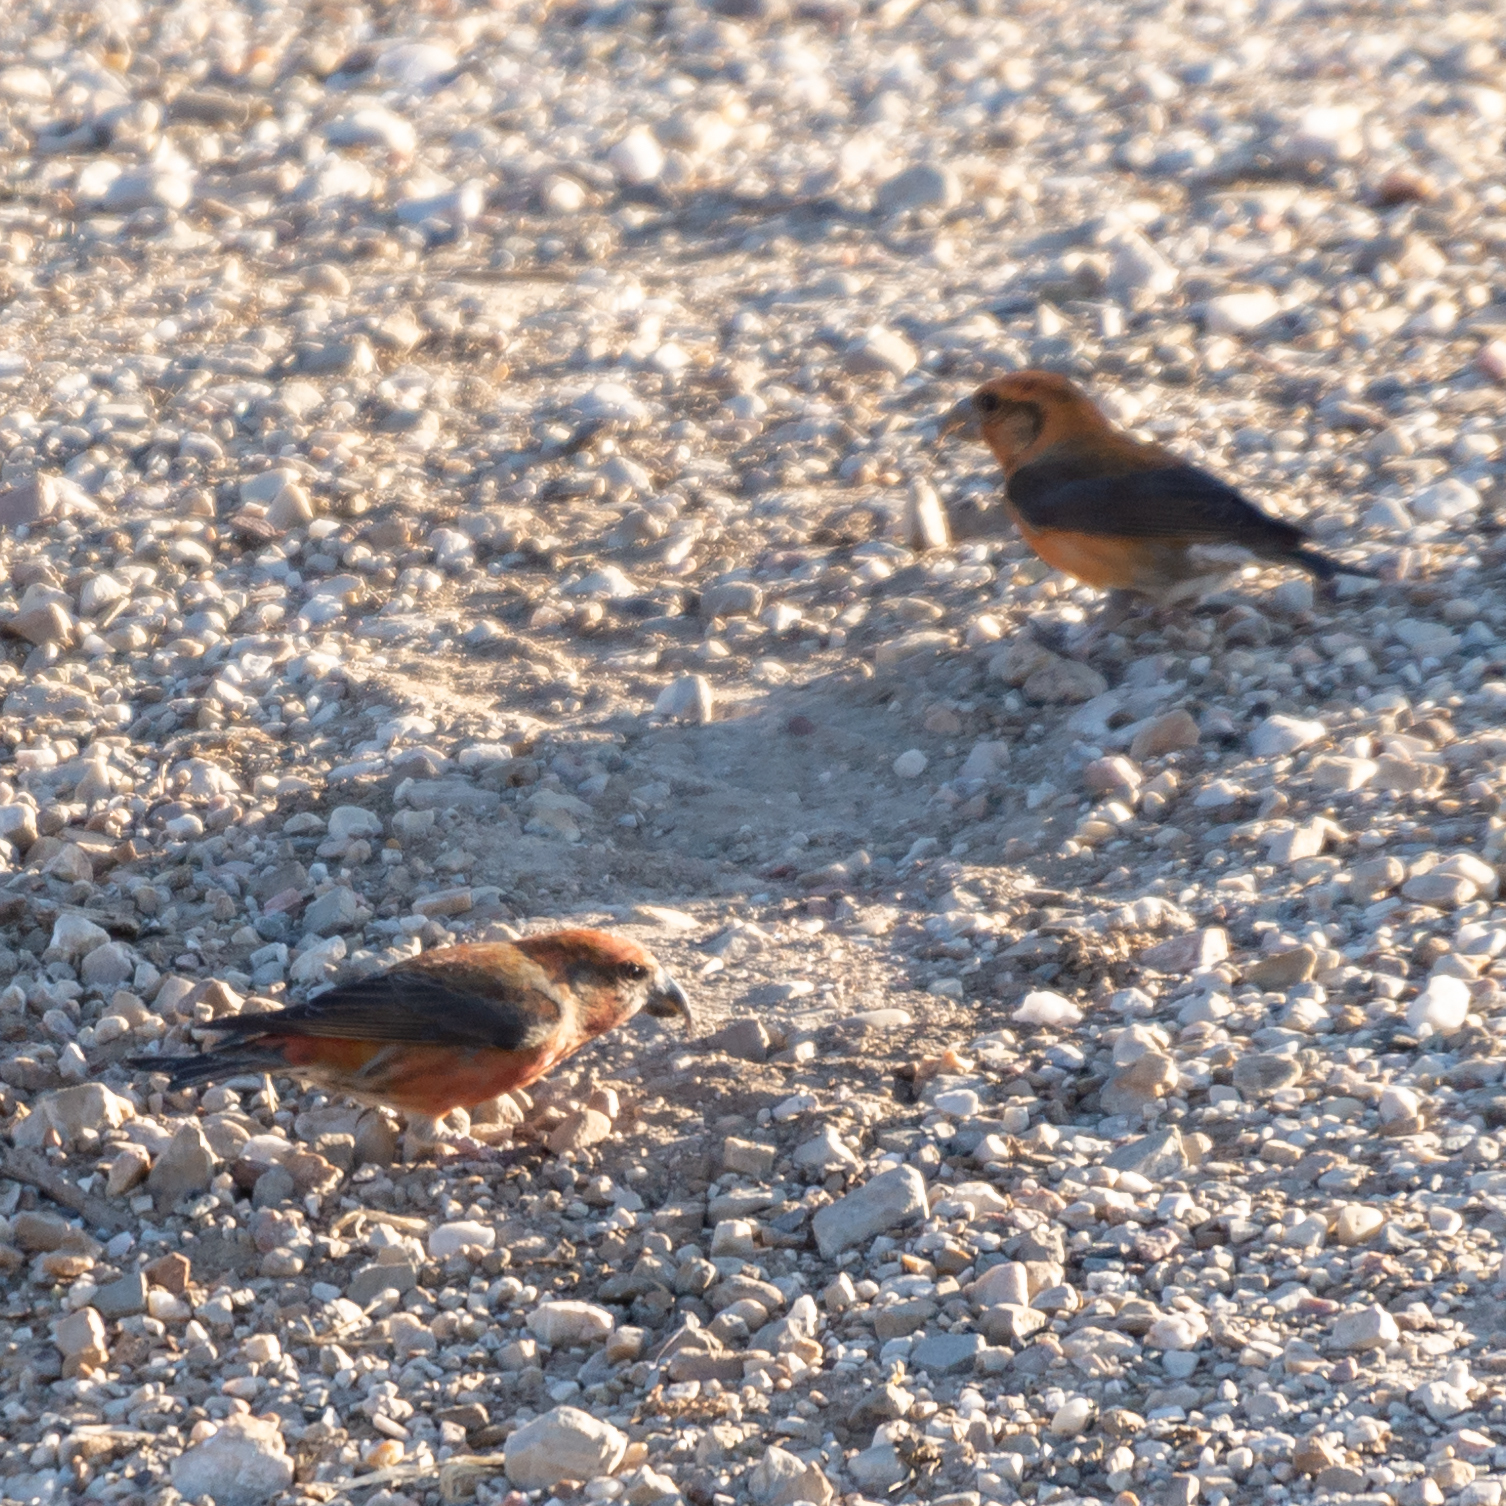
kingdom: Animalia
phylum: Chordata
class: Aves
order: Passeriformes
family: Fringillidae
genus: Loxia
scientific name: Loxia curvirostra
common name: Red crossbill
